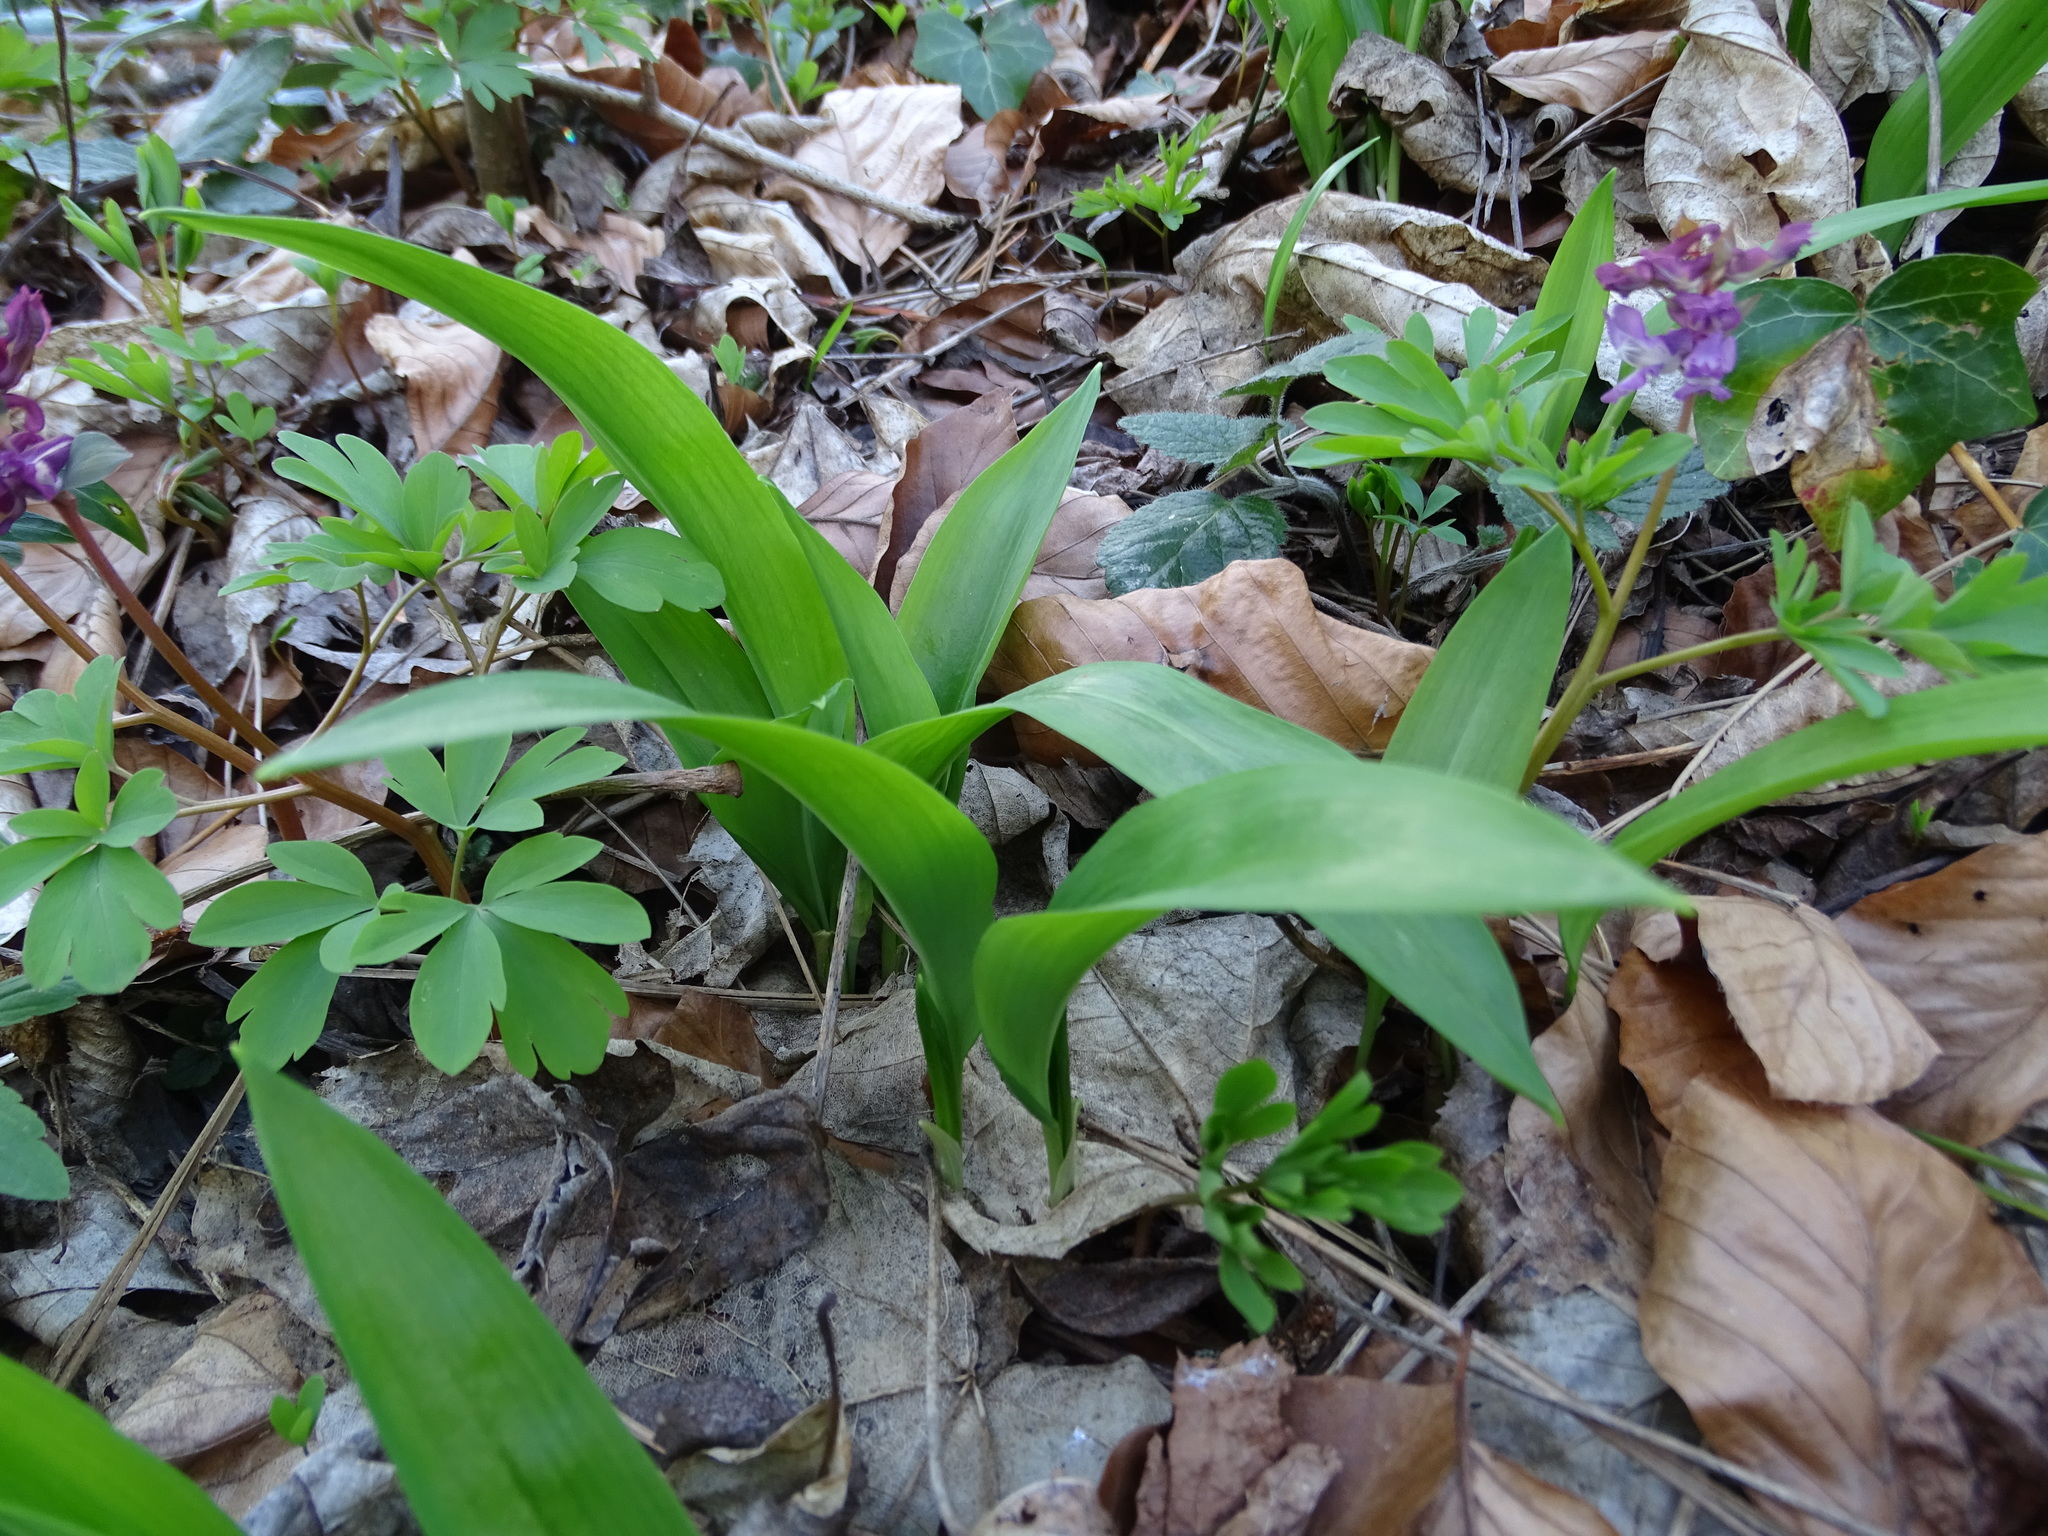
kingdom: Plantae
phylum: Tracheophyta
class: Liliopsida
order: Asparagales
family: Amaryllidaceae
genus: Allium
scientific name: Allium ursinum
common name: Ramsons
